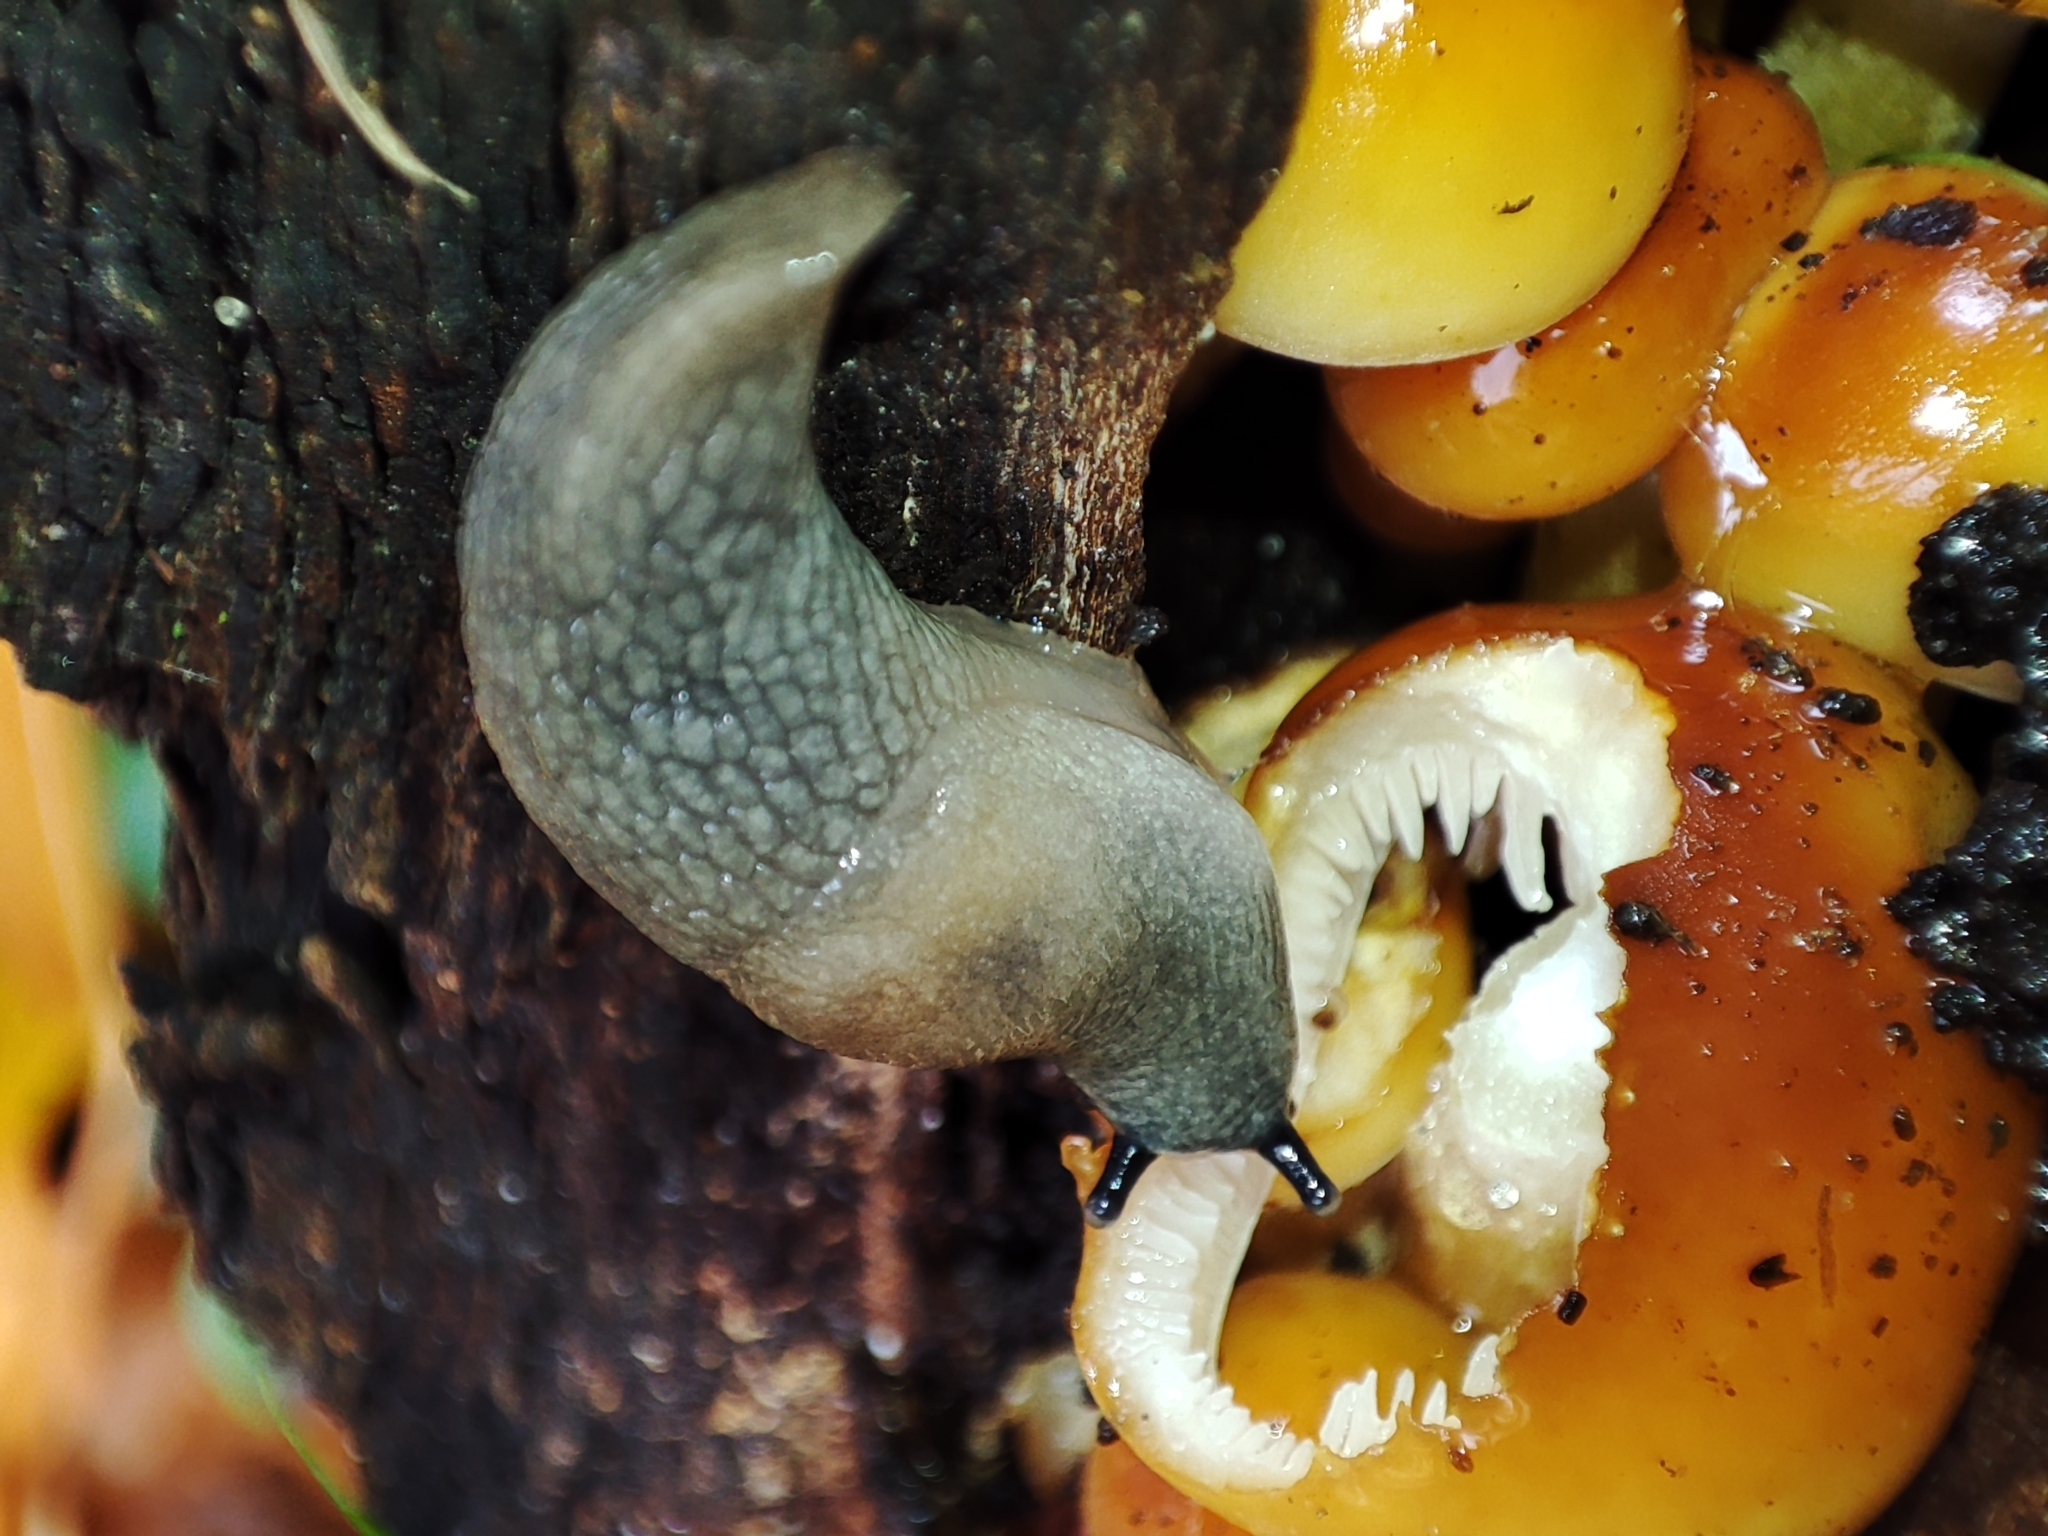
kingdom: Animalia
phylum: Mollusca
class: Gastropoda
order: Stylommatophora
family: Agriolimacidae
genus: Krynickillus
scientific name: Krynickillus melanocephalus
